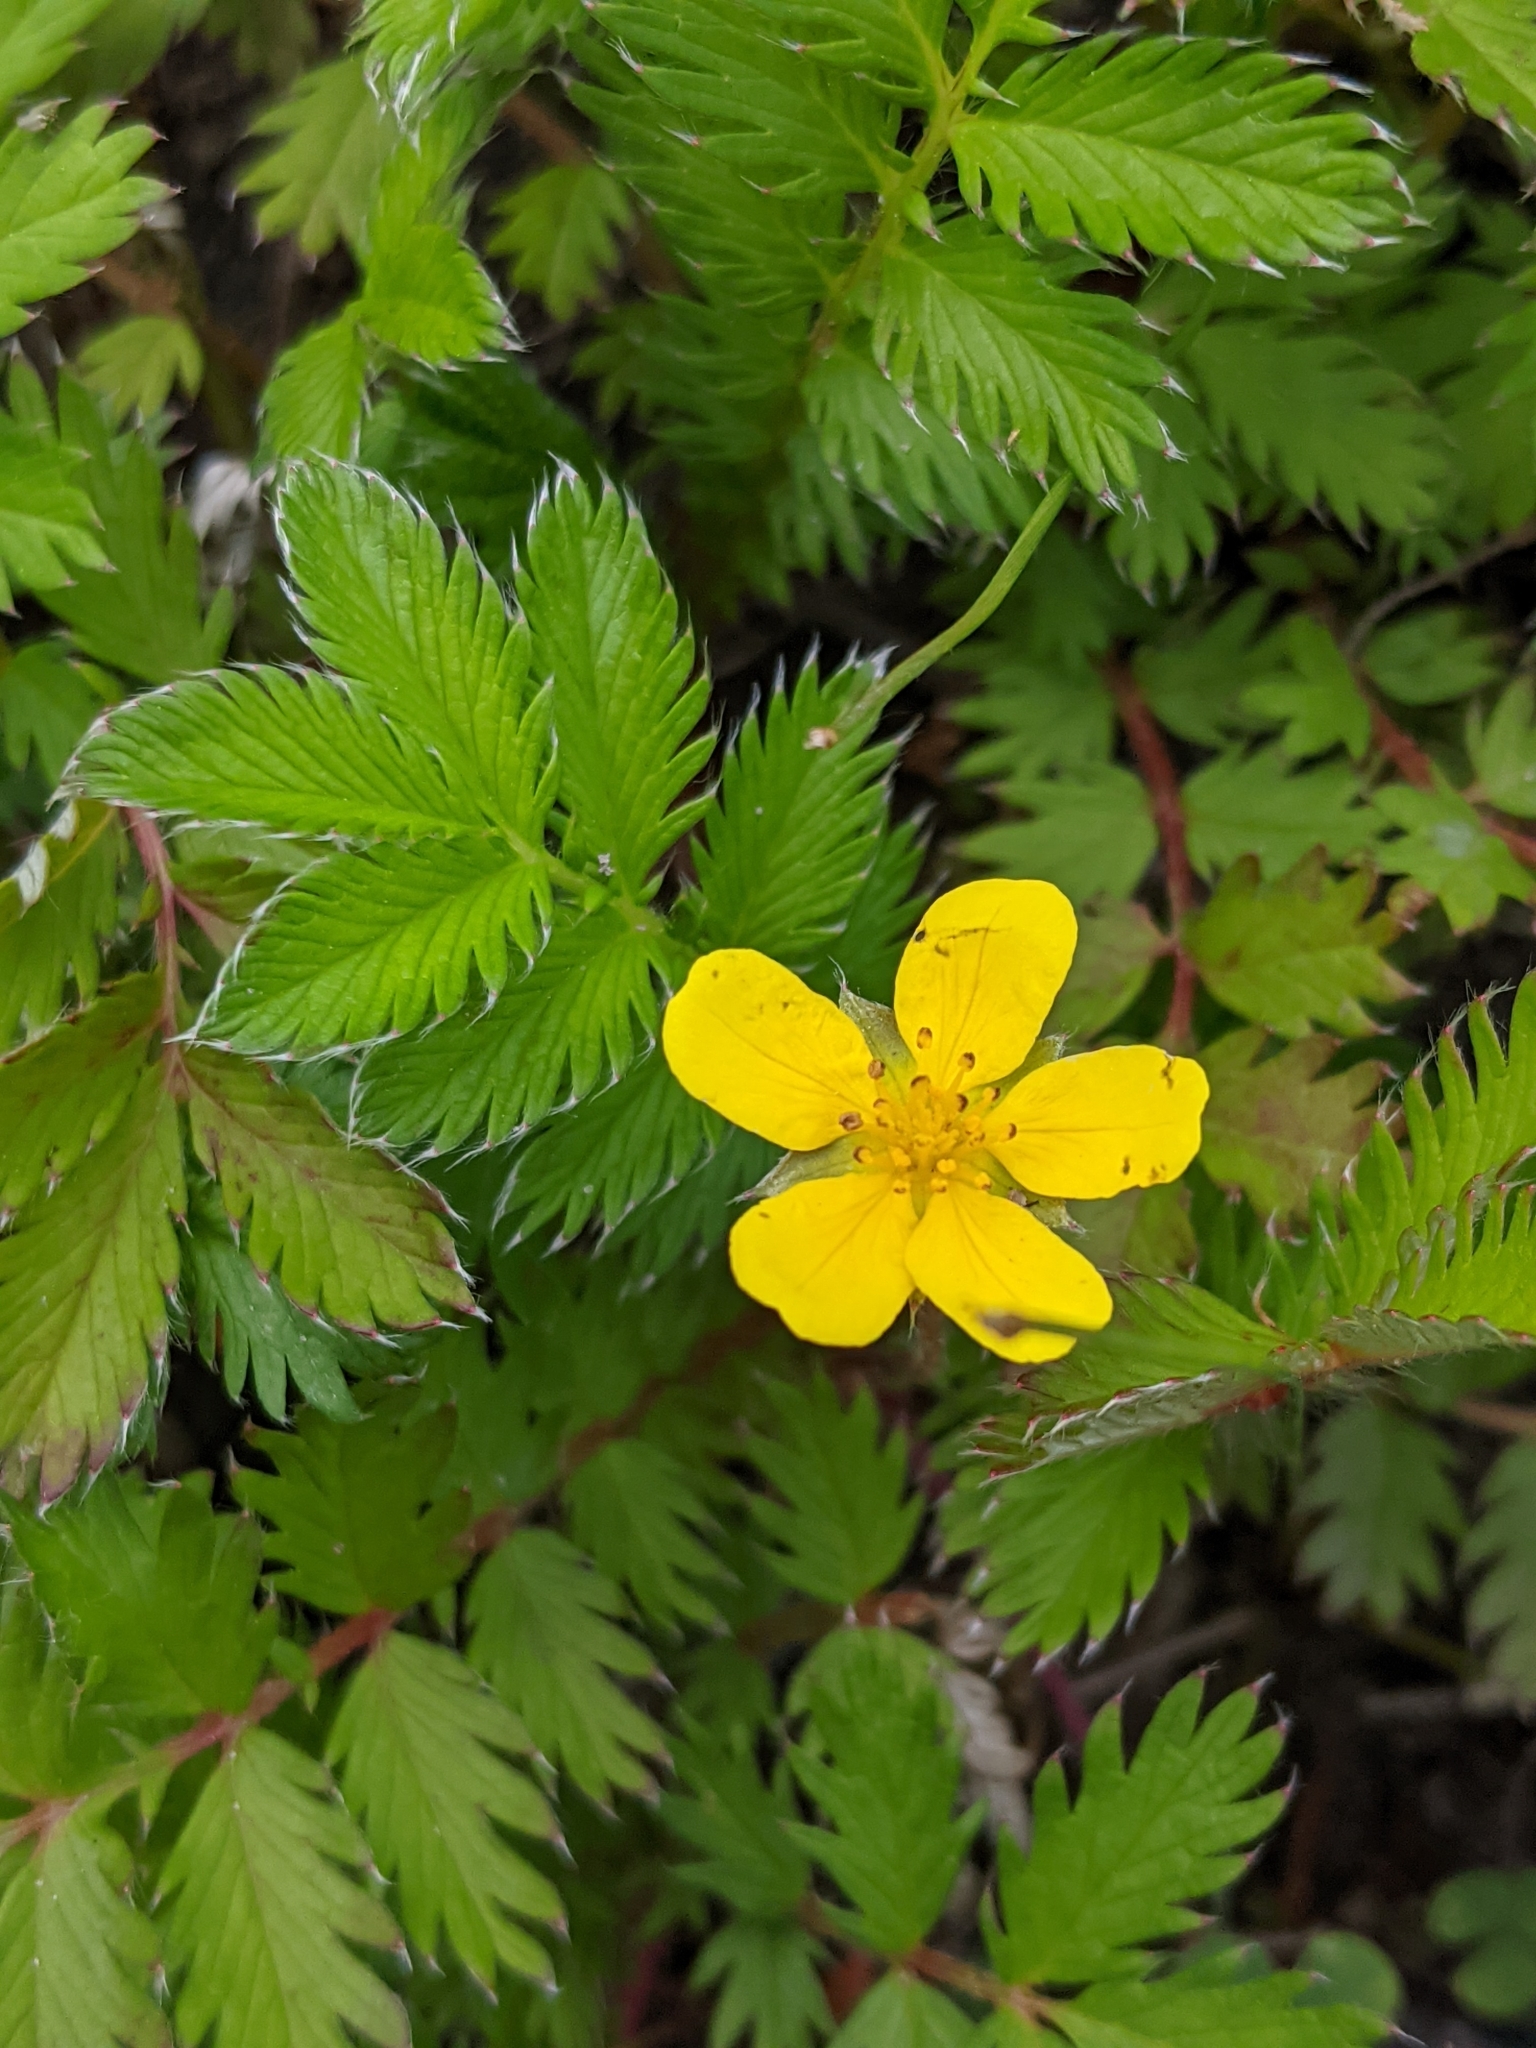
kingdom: Plantae
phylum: Tracheophyta
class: Magnoliopsida
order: Rosales
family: Rosaceae
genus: Argentina
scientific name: Argentina anserina
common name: Common silverweed
